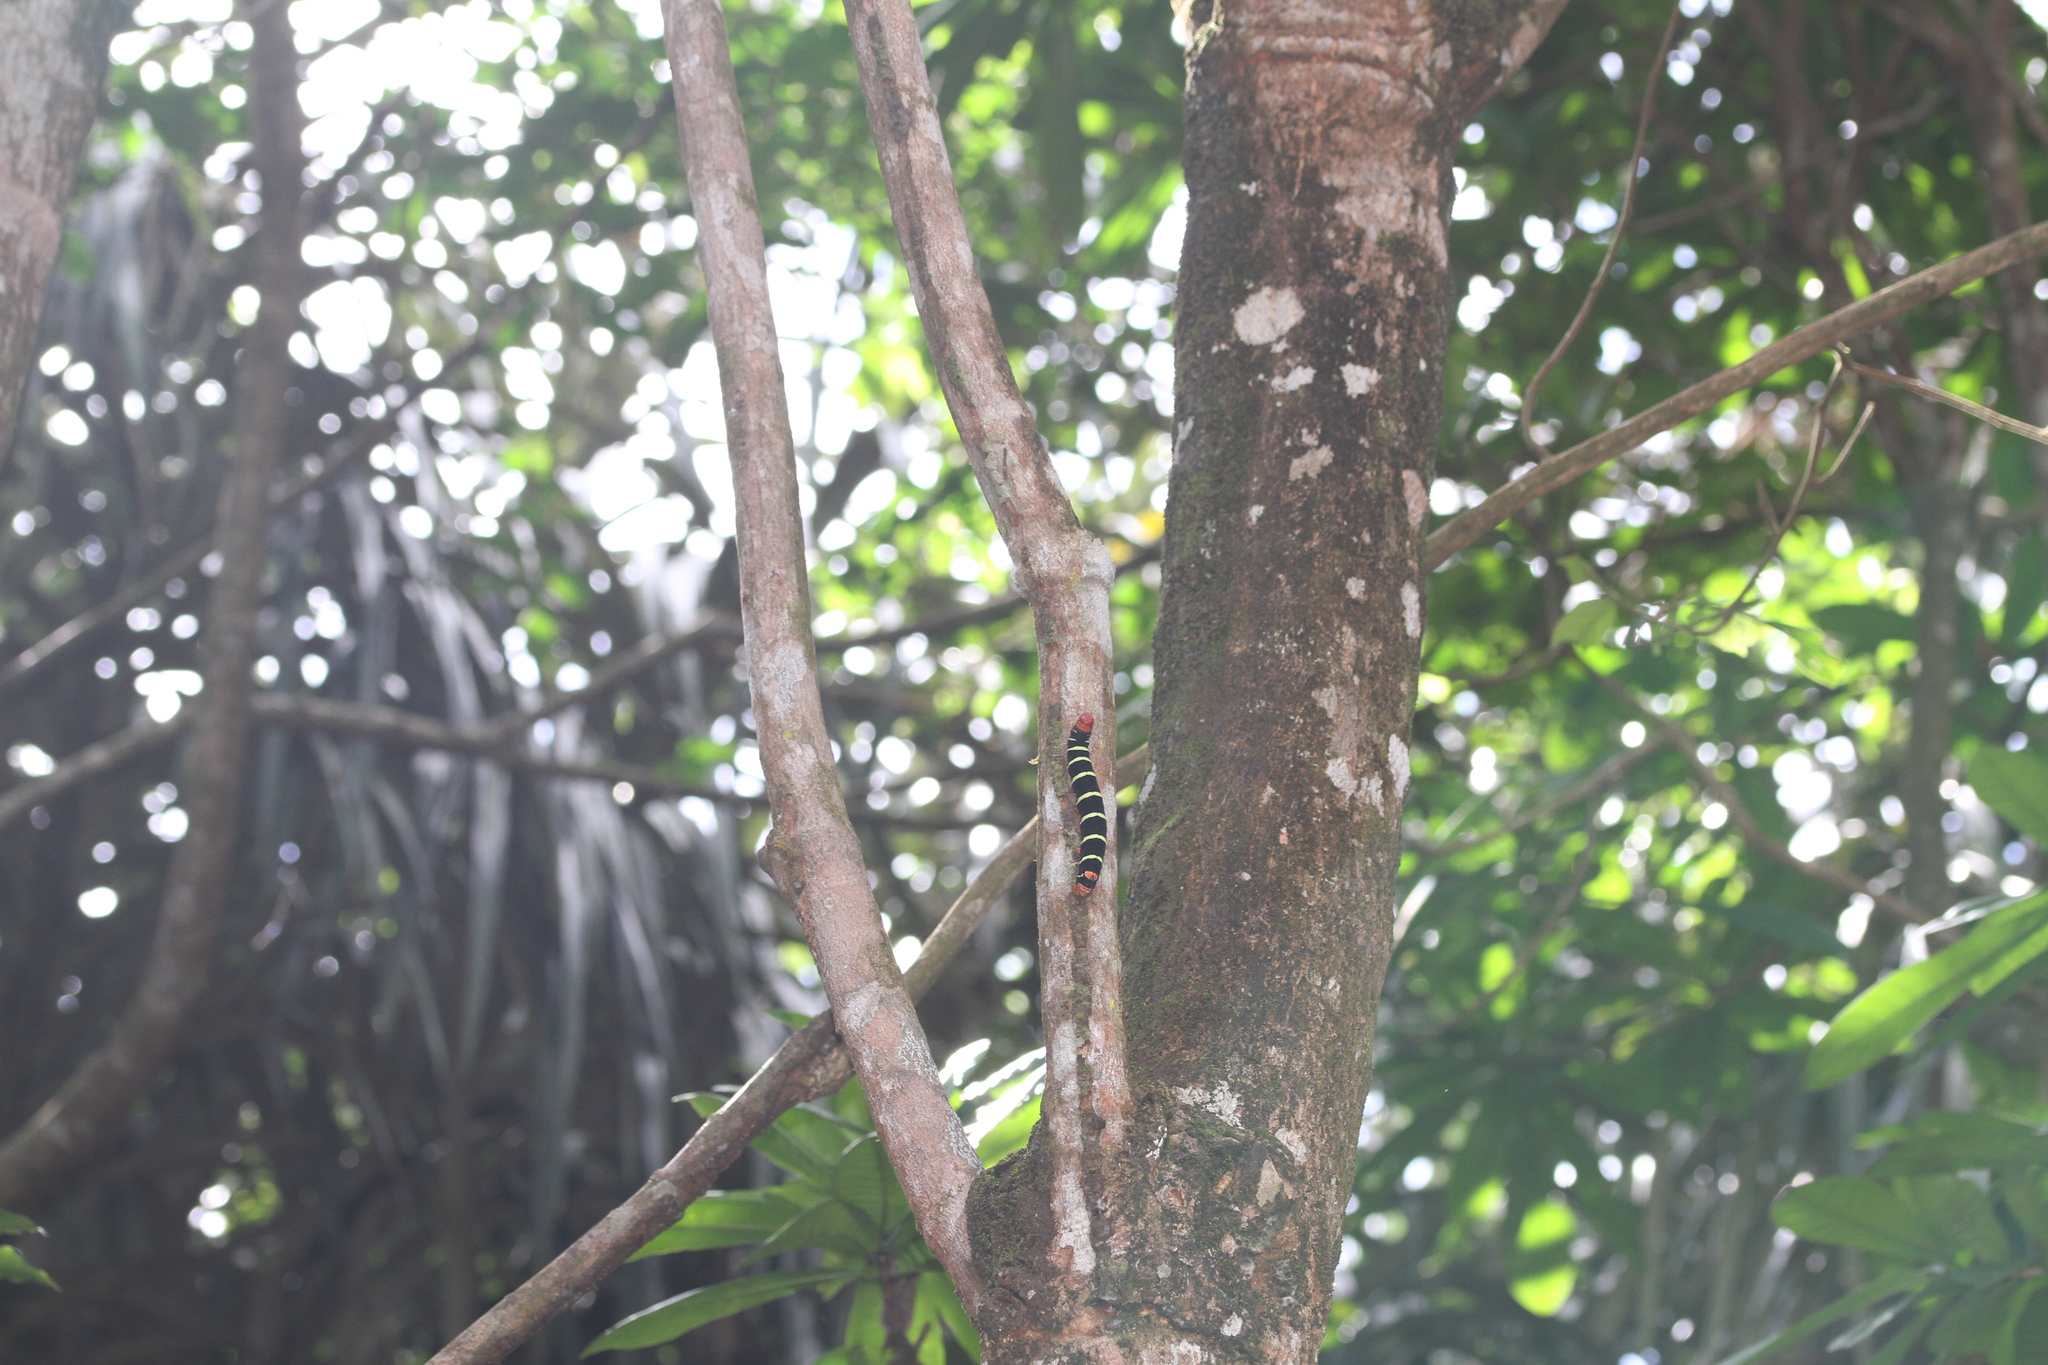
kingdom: Animalia
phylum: Arthropoda
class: Insecta
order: Lepidoptera
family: Sphingidae
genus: Pseudosphinx
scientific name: Pseudosphinx tetrio
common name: Tetrio sphinx
